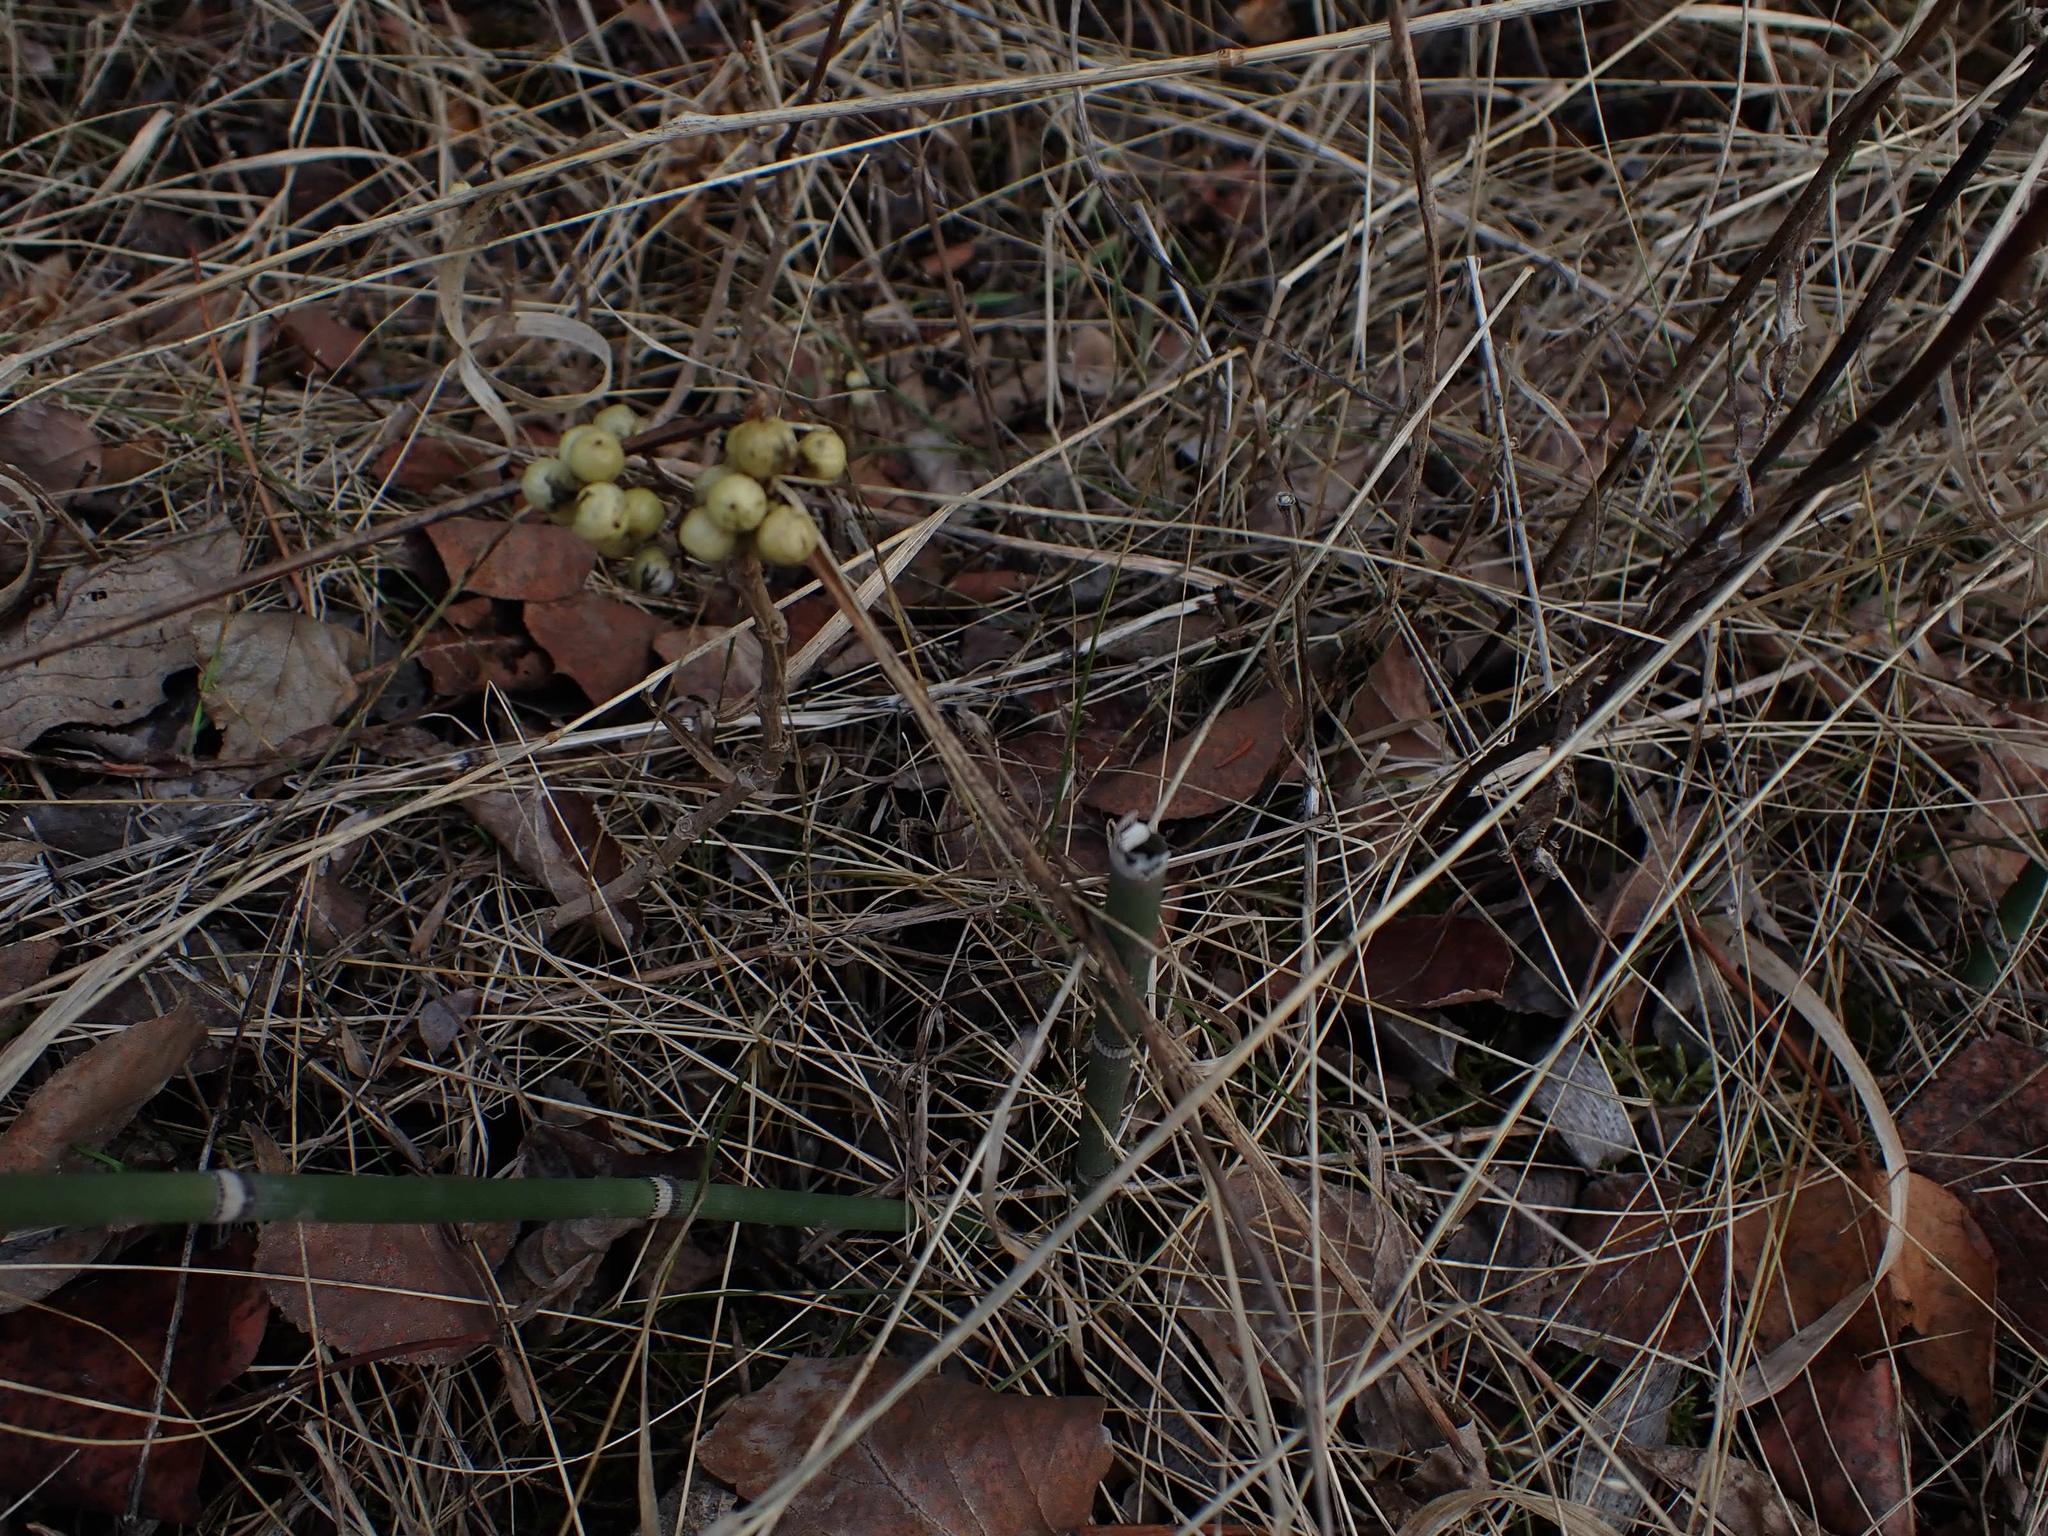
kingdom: Plantae
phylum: Tracheophyta
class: Polypodiopsida
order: Equisetales
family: Equisetaceae
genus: Equisetum
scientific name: Equisetum praealtum
